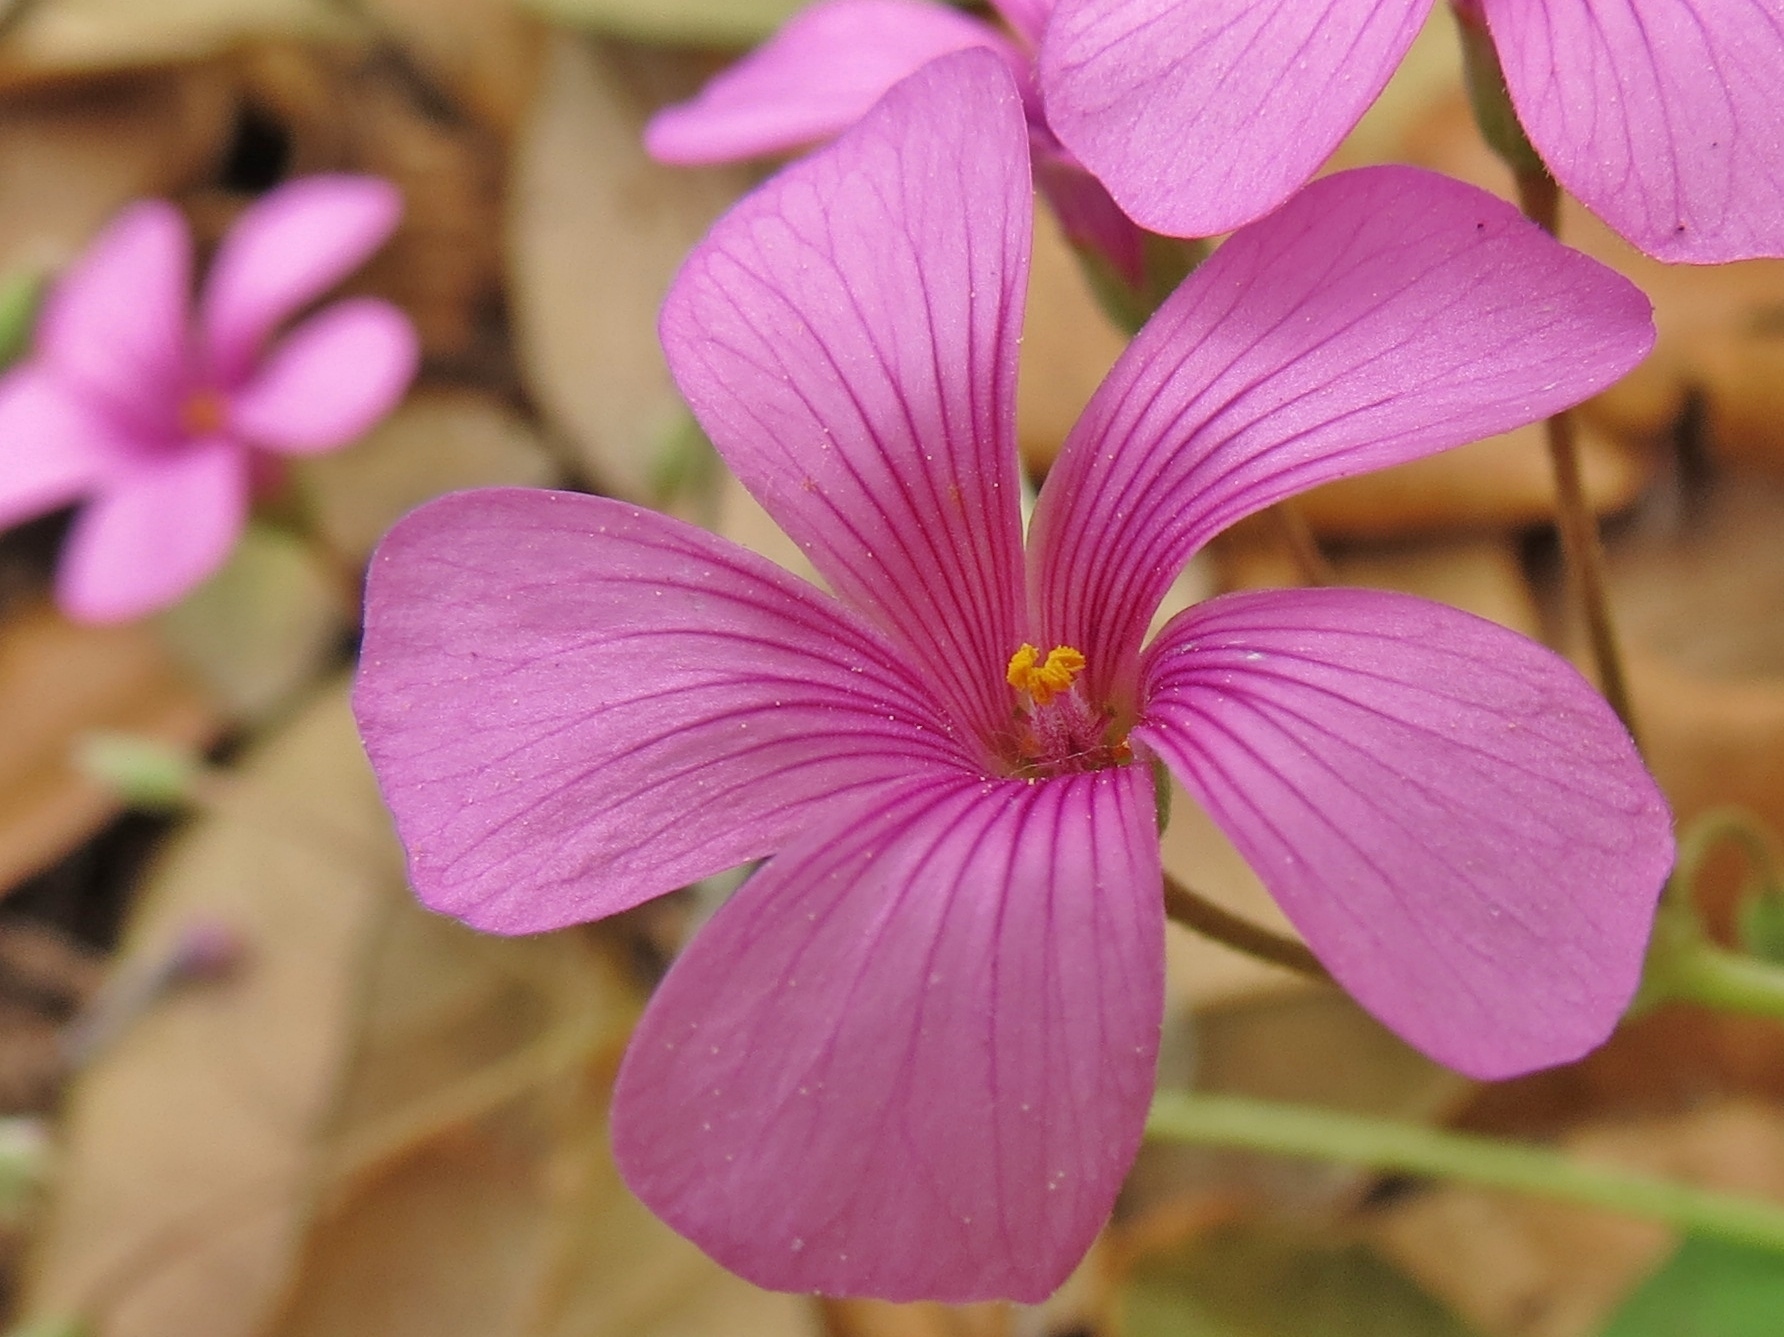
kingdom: Plantae
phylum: Tracheophyta
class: Magnoliopsida
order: Oxalidales
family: Oxalidaceae
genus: Oxalis
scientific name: Oxalis articulata
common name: Pink-sorrel
